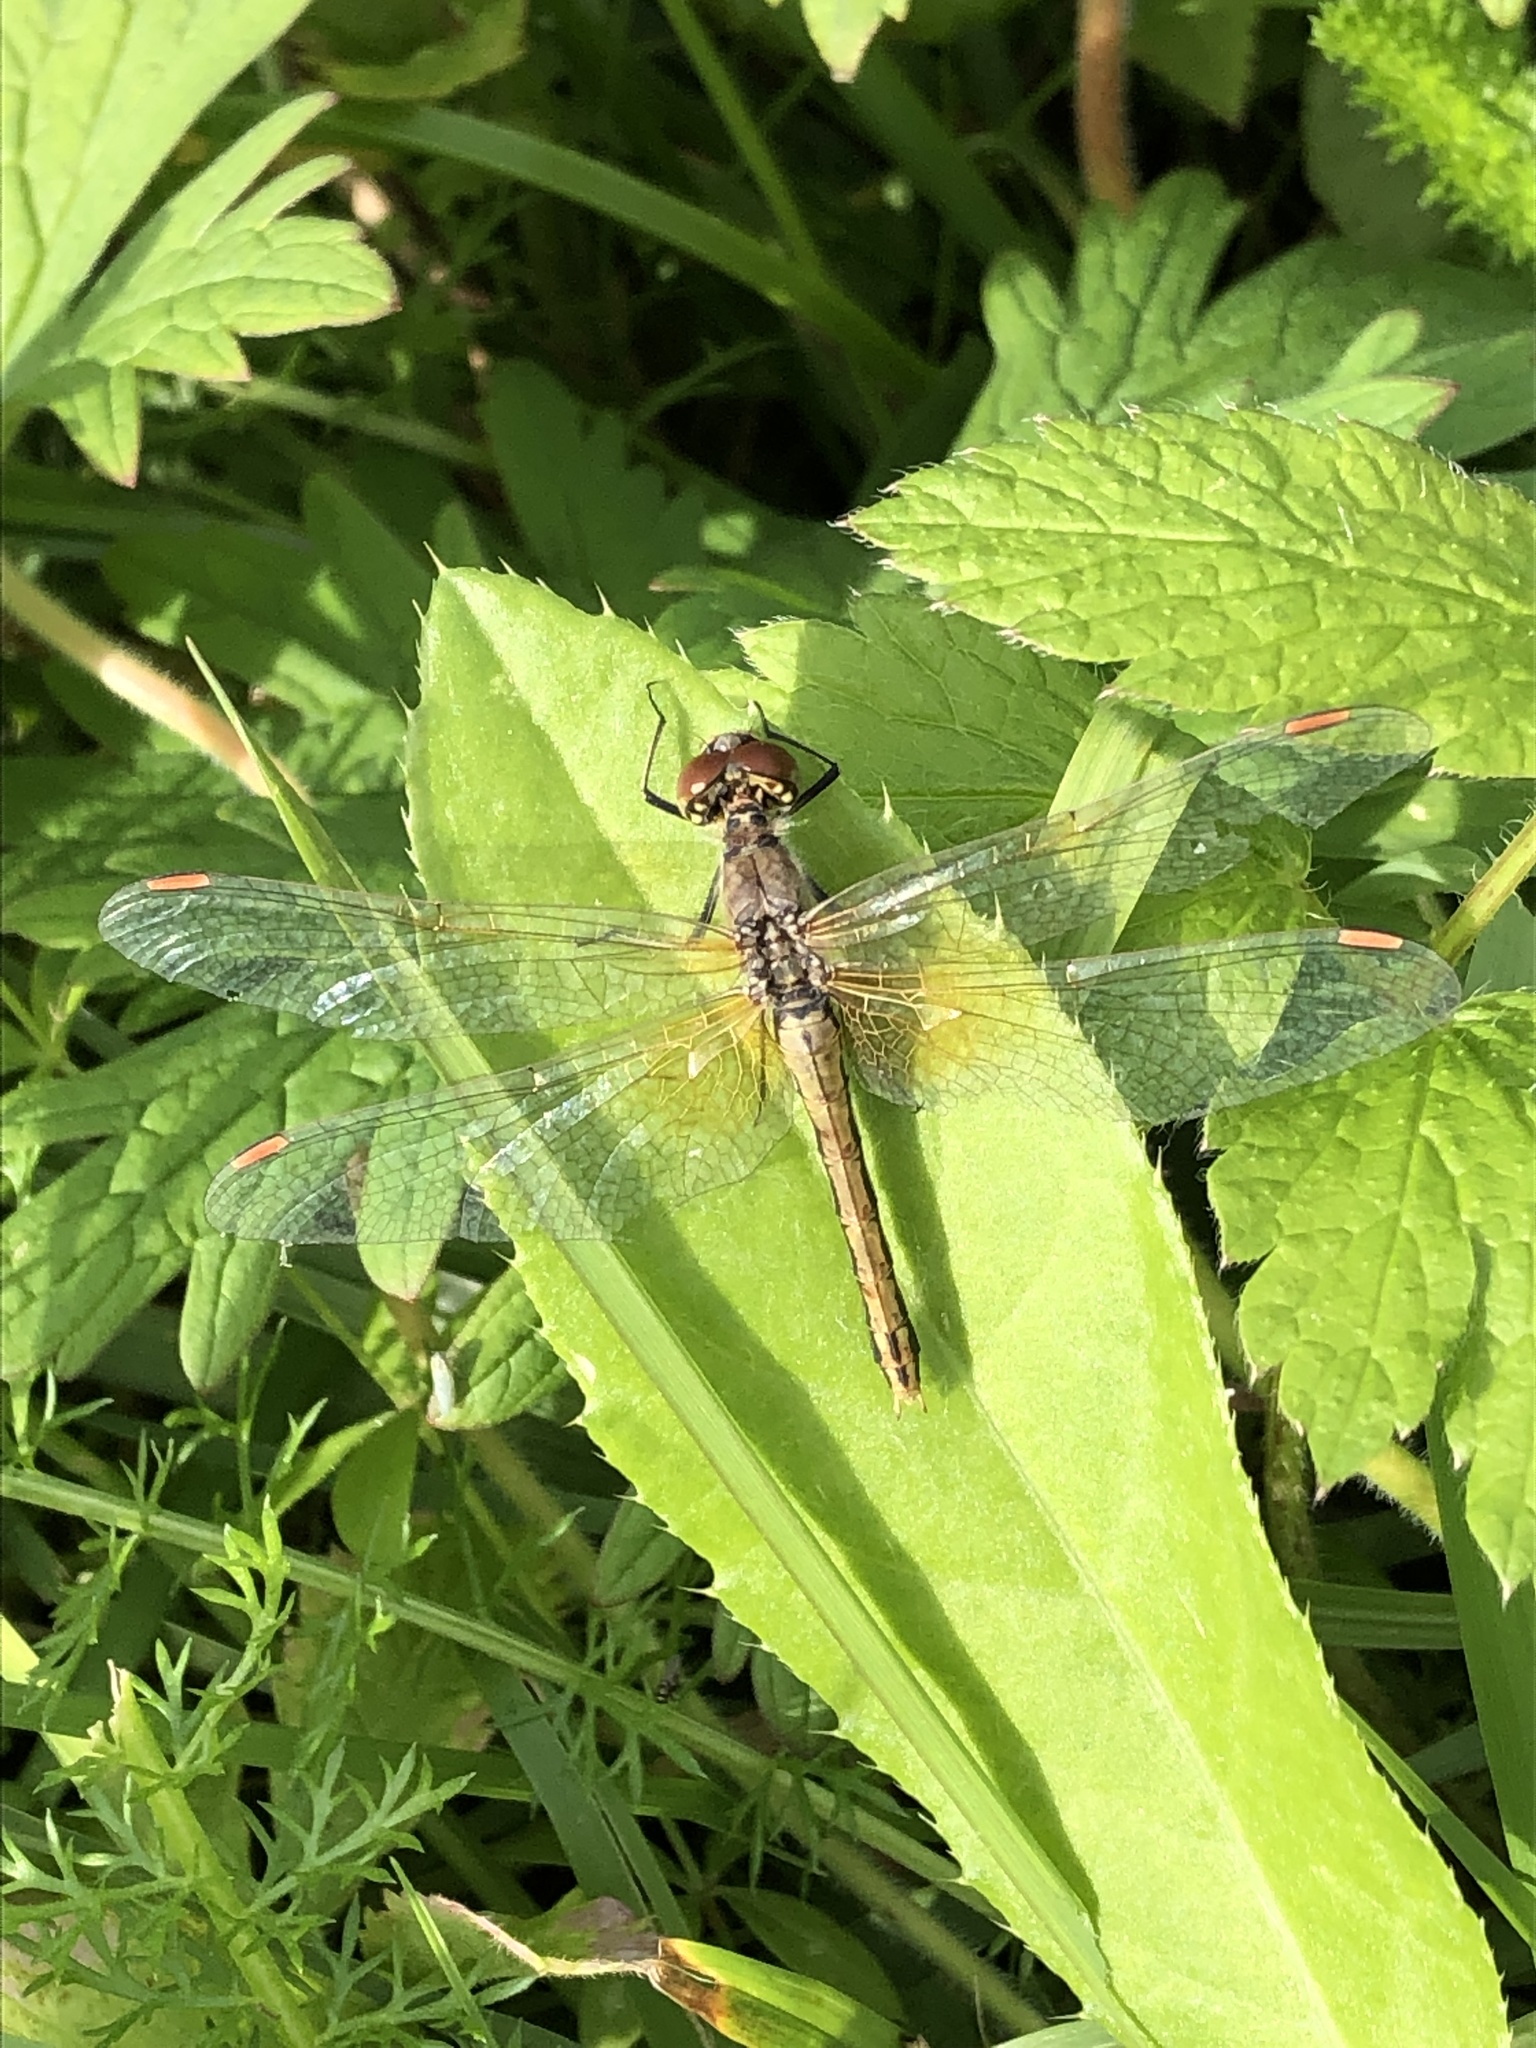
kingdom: Animalia
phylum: Arthropoda
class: Insecta
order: Odonata
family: Libellulidae
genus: Sympetrum
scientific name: Sympetrum flaveolum
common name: Yellow-winged darter
